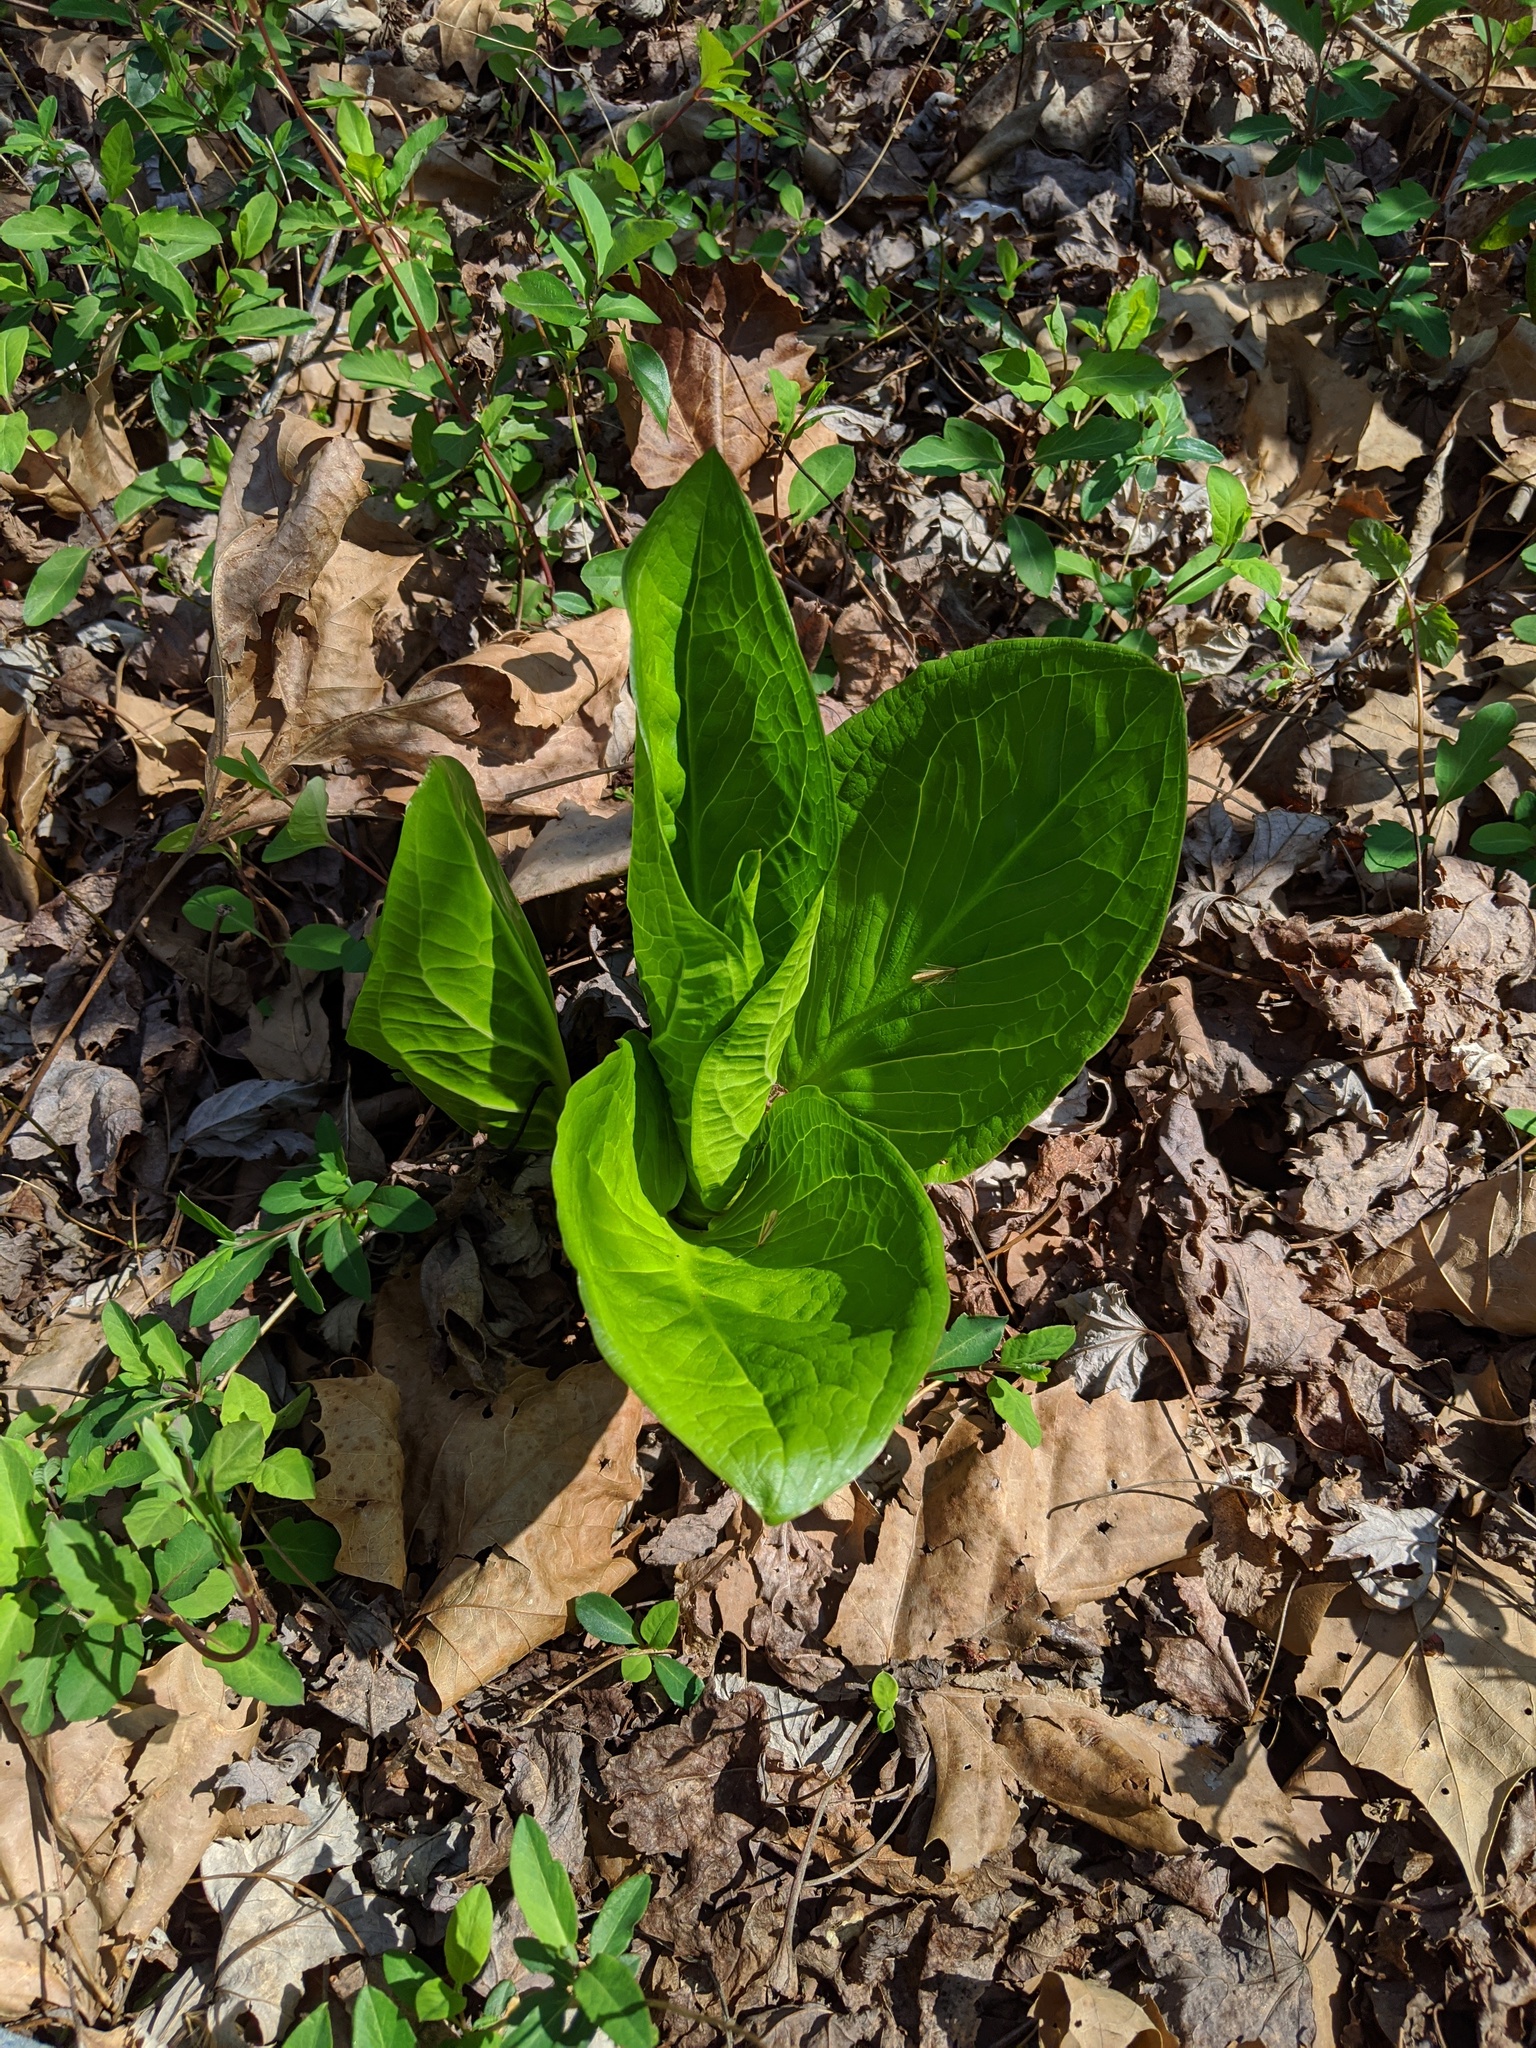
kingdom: Plantae
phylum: Tracheophyta
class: Liliopsida
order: Alismatales
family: Araceae
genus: Symplocarpus
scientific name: Symplocarpus foetidus
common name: Eastern skunk cabbage
